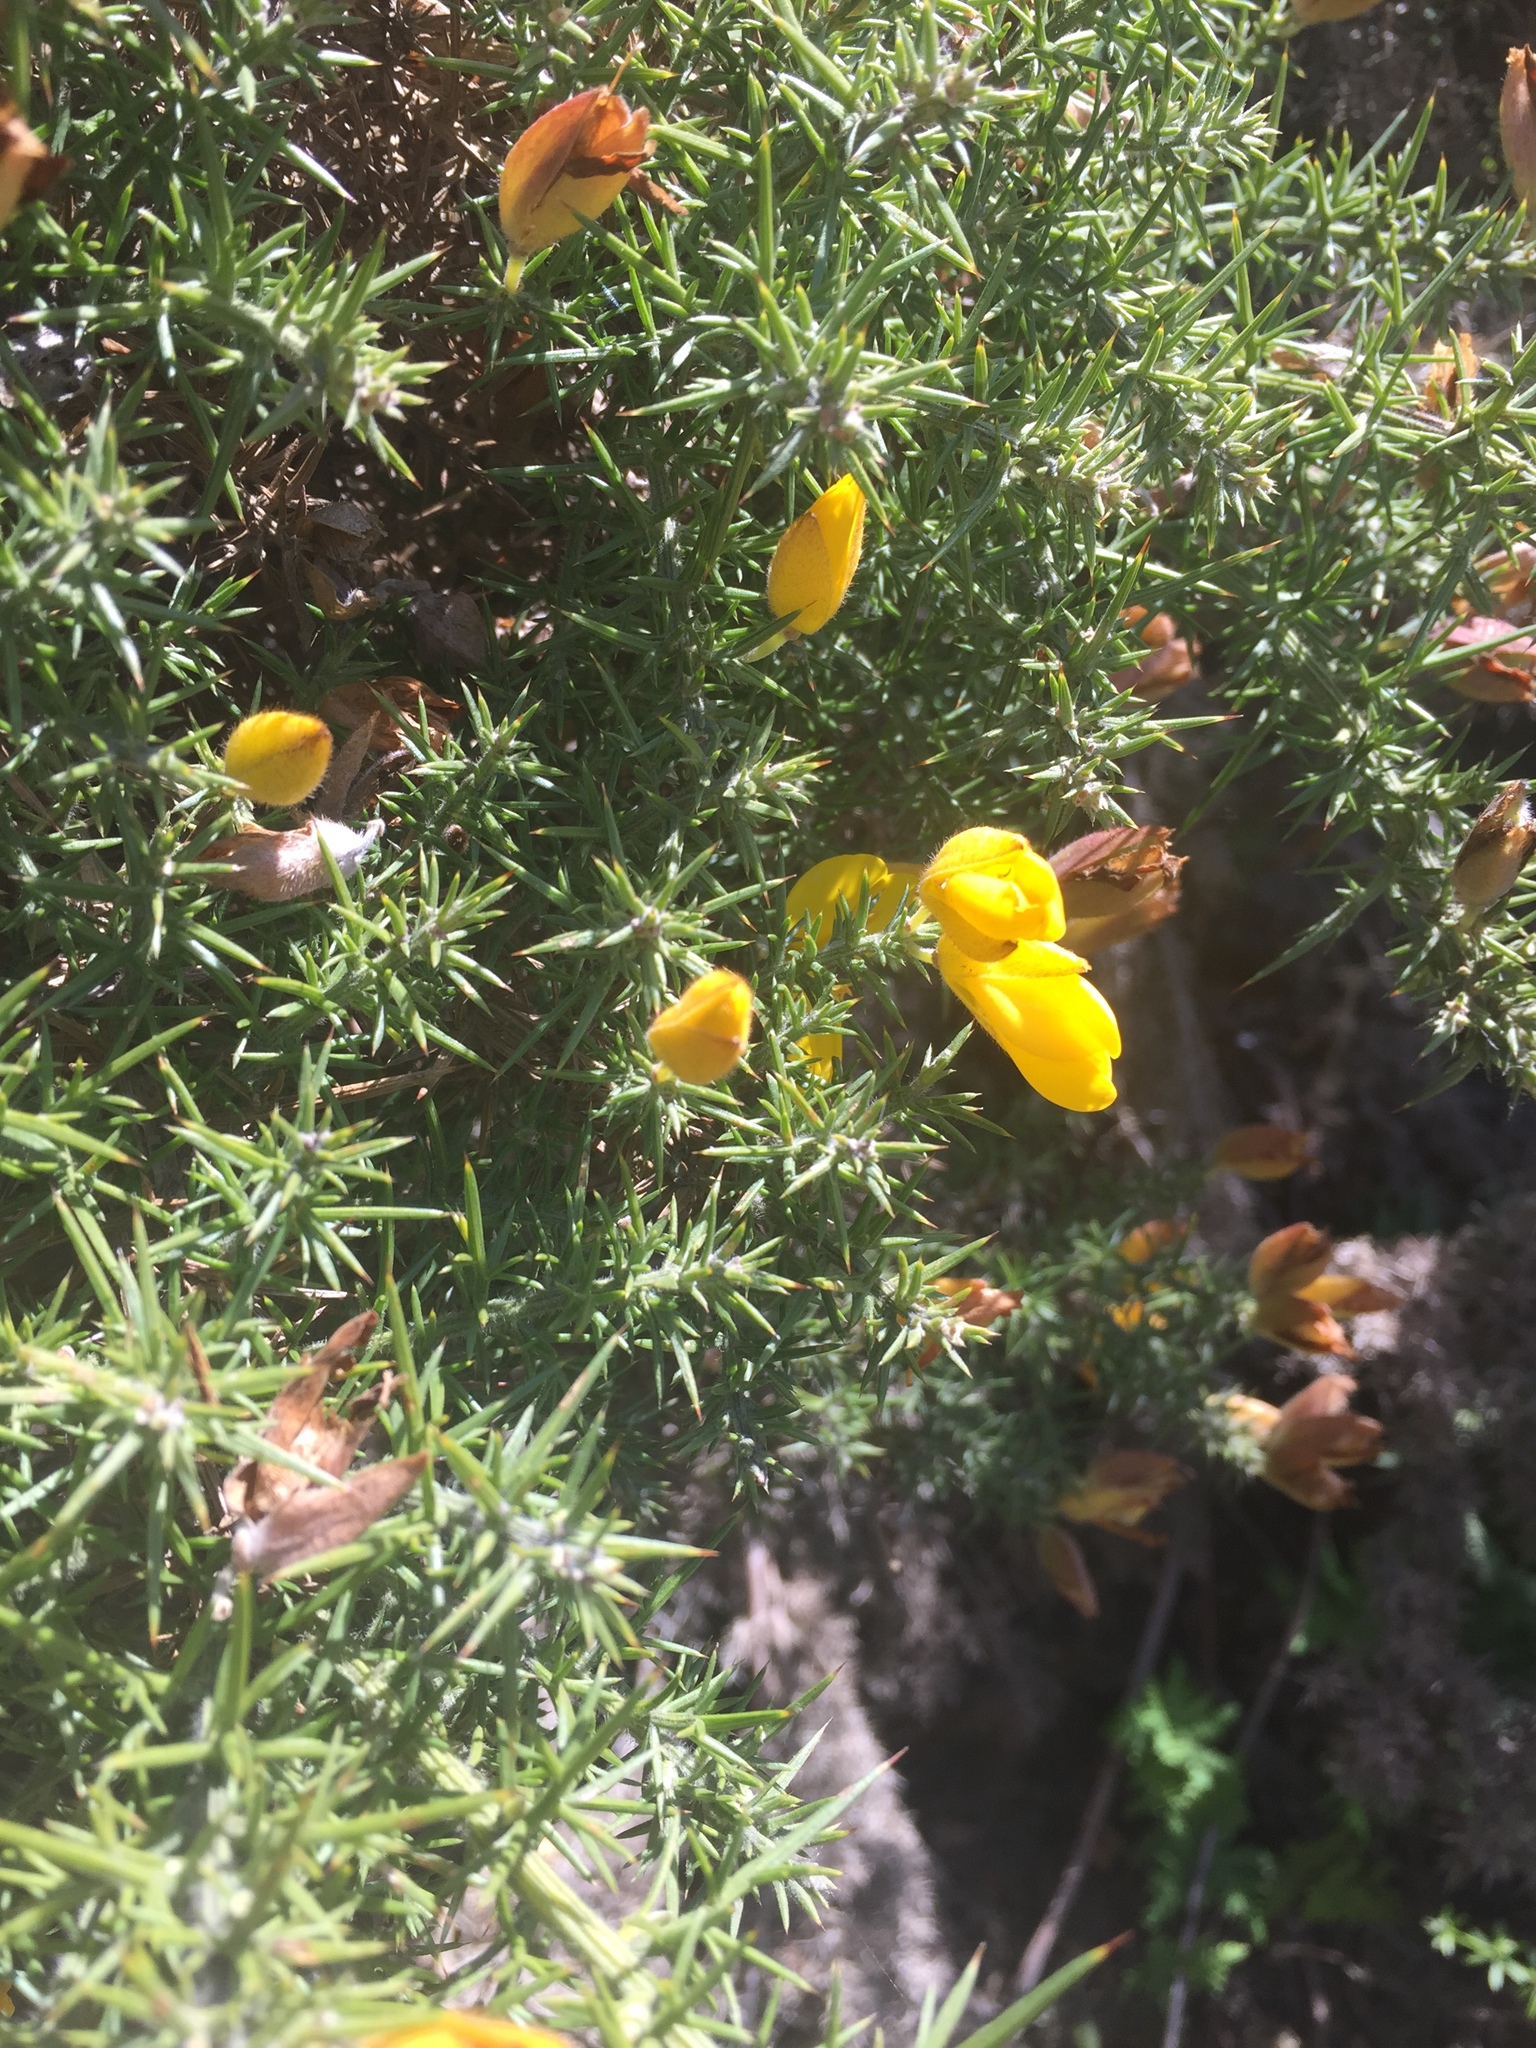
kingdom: Plantae
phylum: Tracheophyta
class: Magnoliopsida
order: Fabales
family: Fabaceae
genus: Ulex
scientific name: Ulex europaeus
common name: Common gorse
